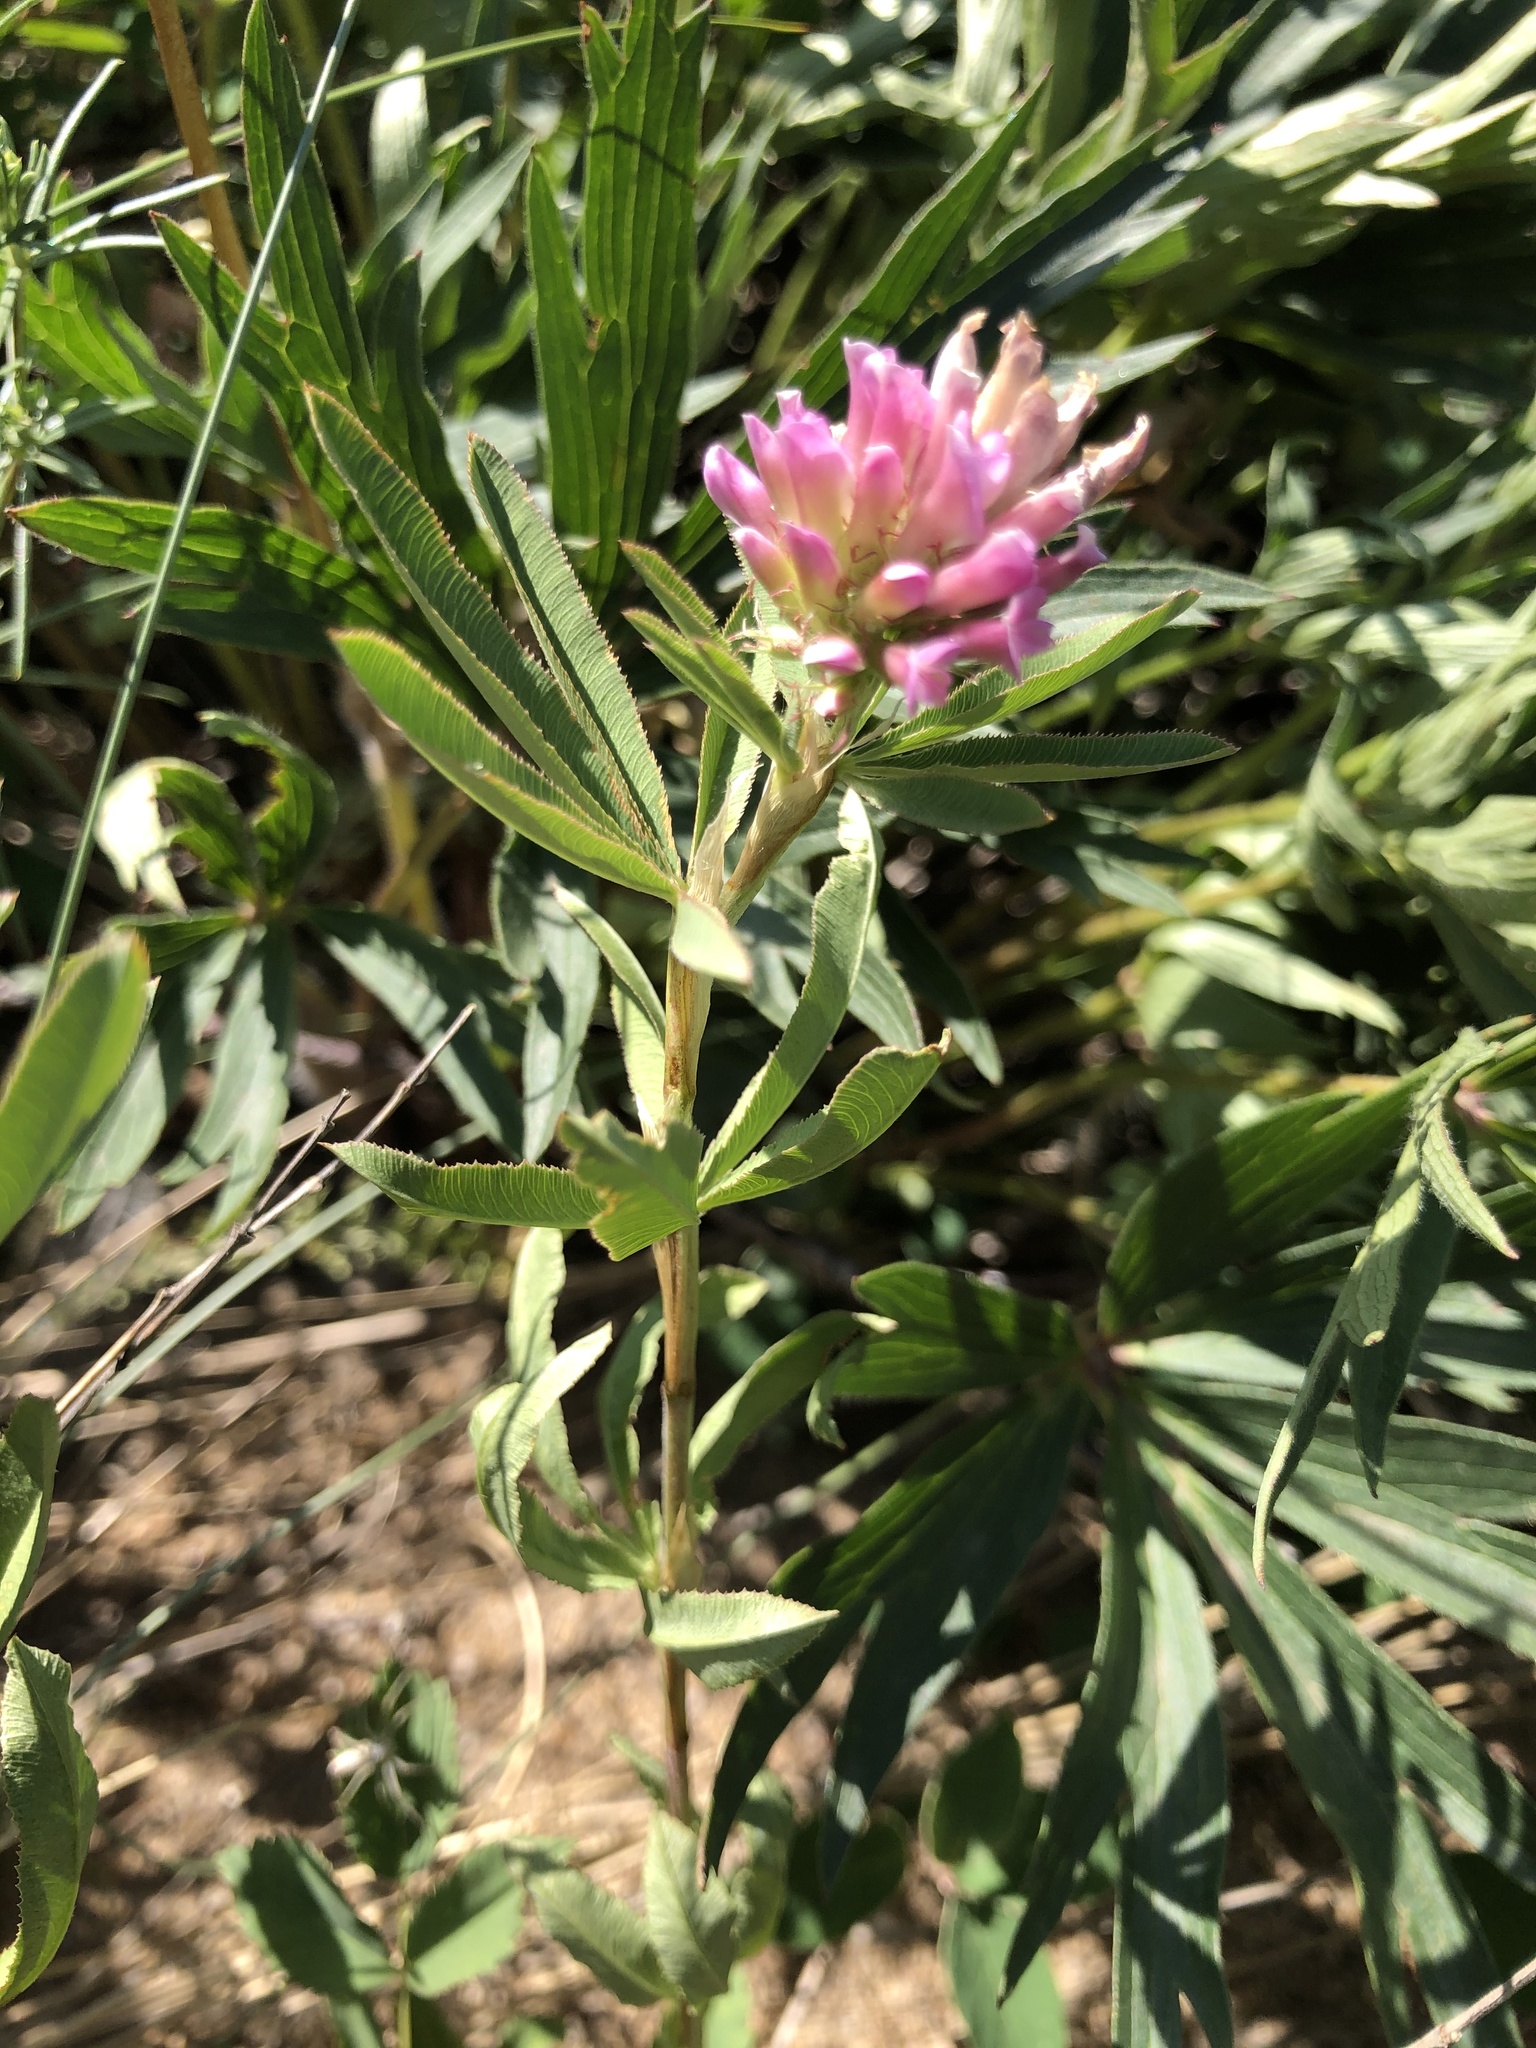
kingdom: Plantae
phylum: Tracheophyta
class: Magnoliopsida
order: Fabales
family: Fabaceae
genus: Trifolium
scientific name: Trifolium lupinaster
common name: Lupine clover
